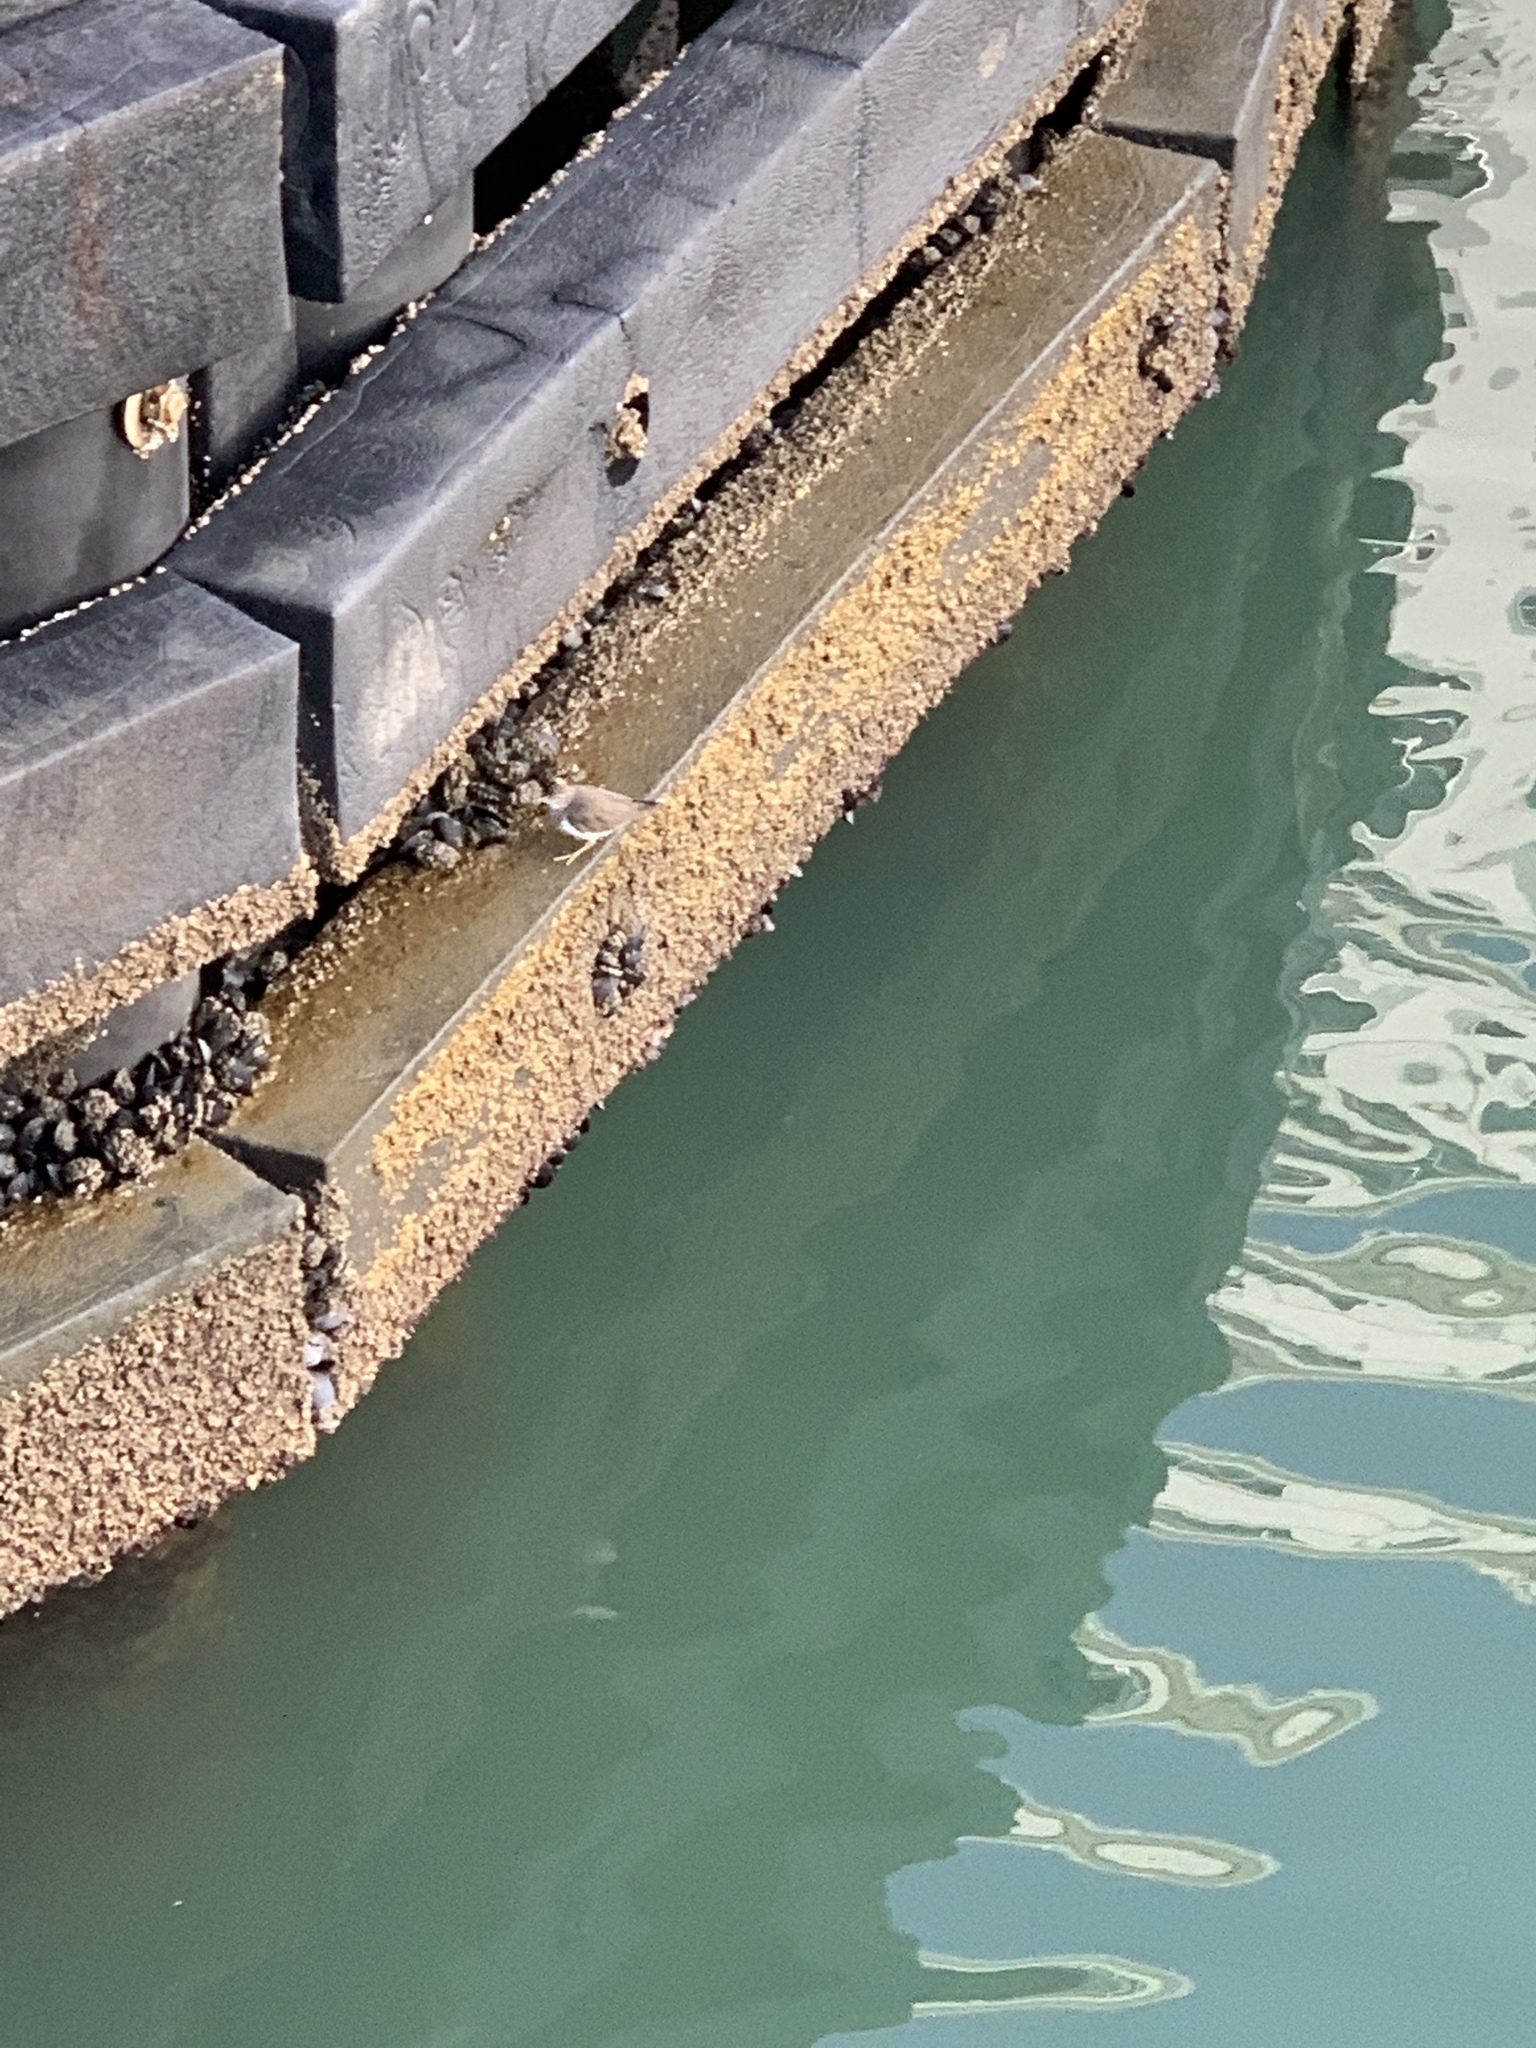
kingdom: Animalia
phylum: Chordata
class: Aves
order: Charadriiformes
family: Scolopacidae
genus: Actitis
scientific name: Actitis macularius
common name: Spotted sandpiper
